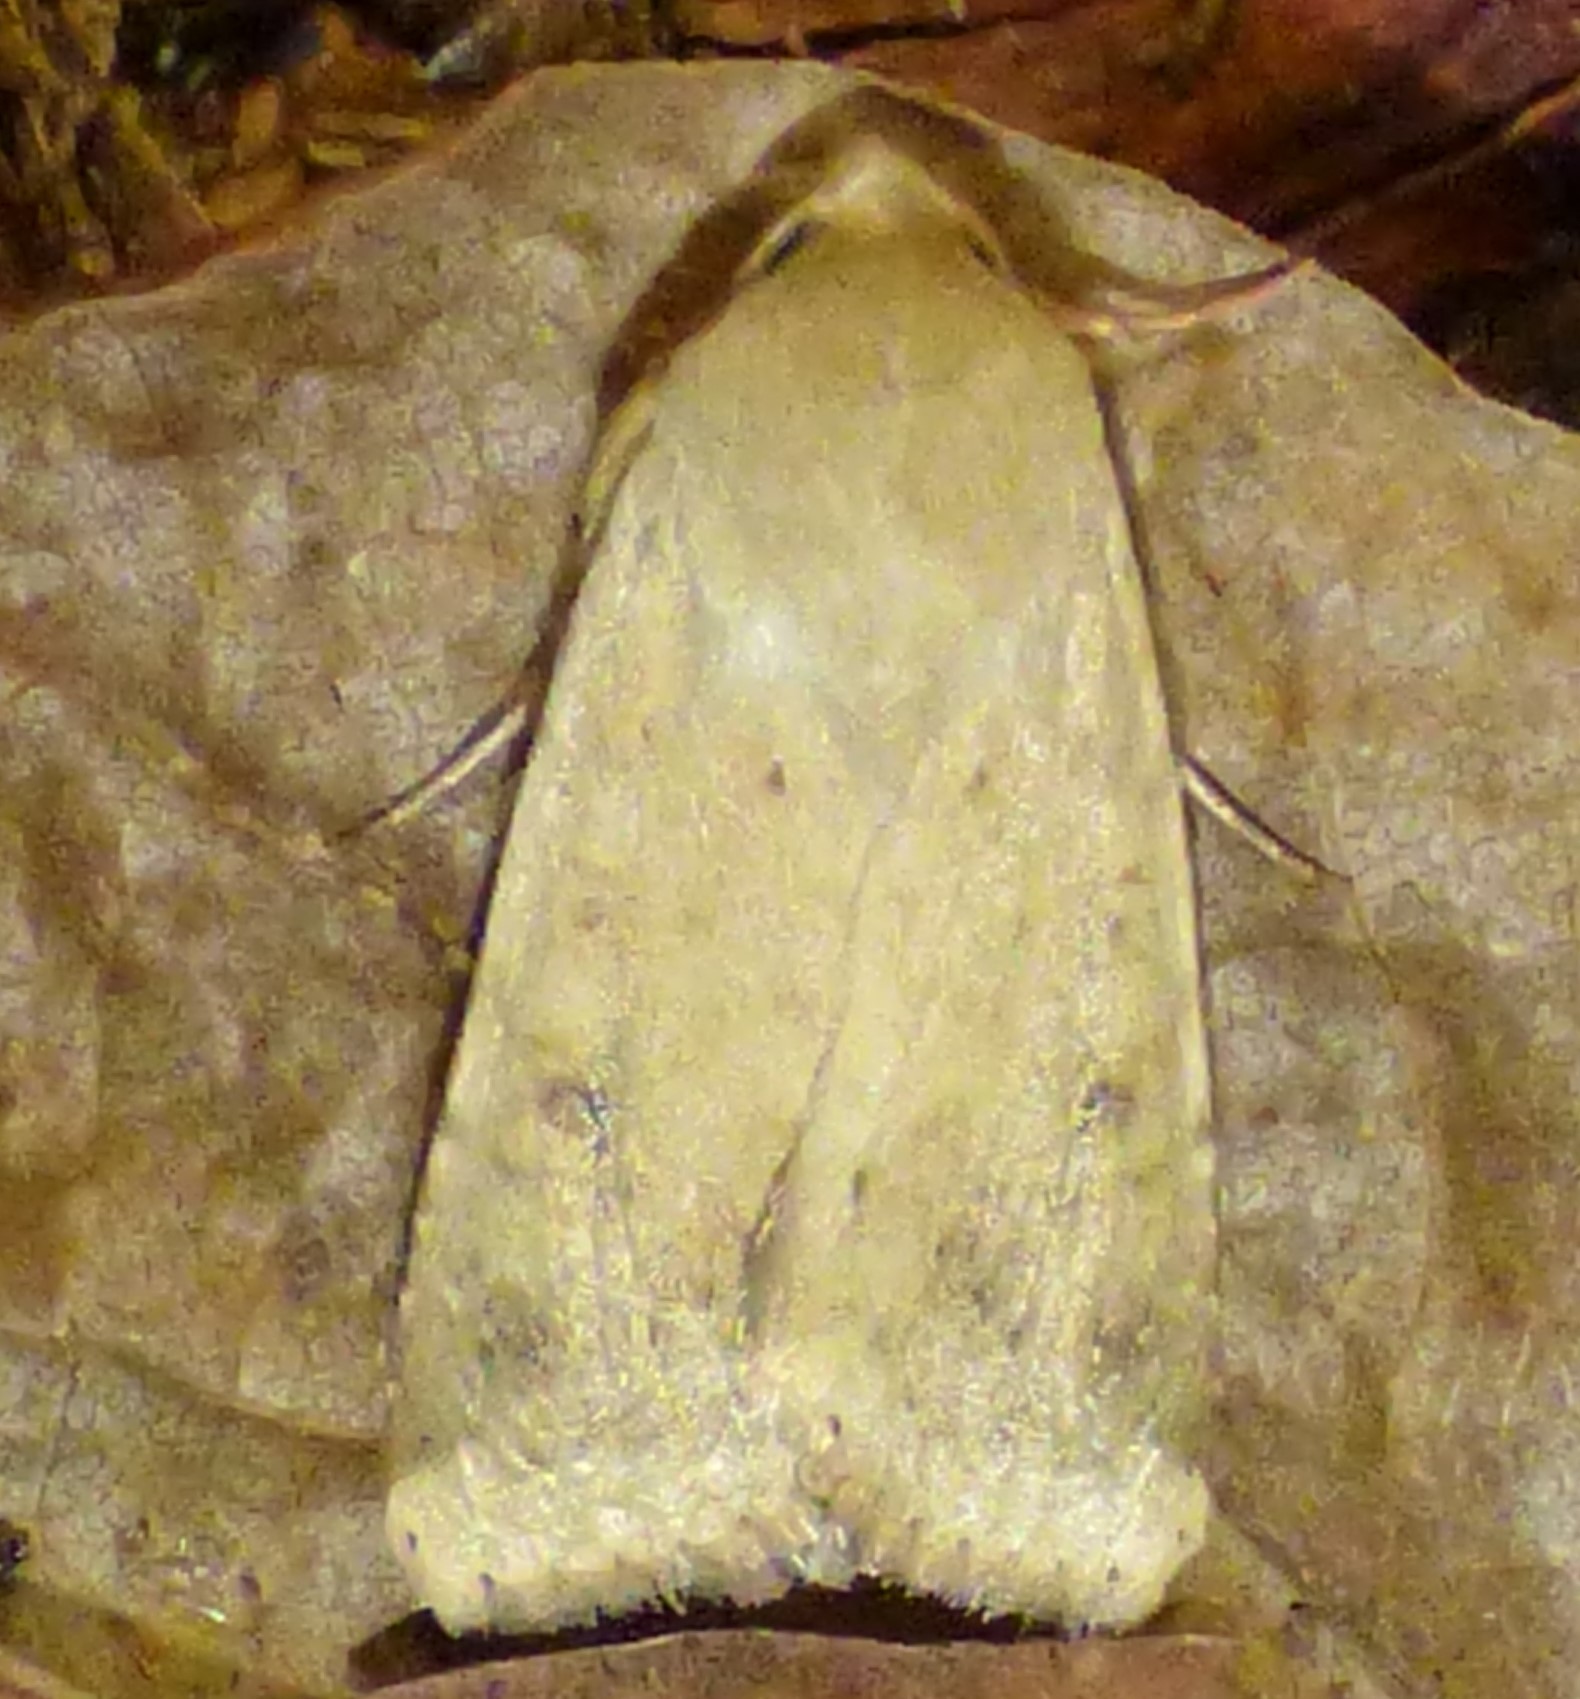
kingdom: Animalia
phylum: Arthropoda
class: Insecta
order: Lepidoptera
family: Noctuidae
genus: Helicoverpa
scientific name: Helicoverpa zea
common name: Bollworm
